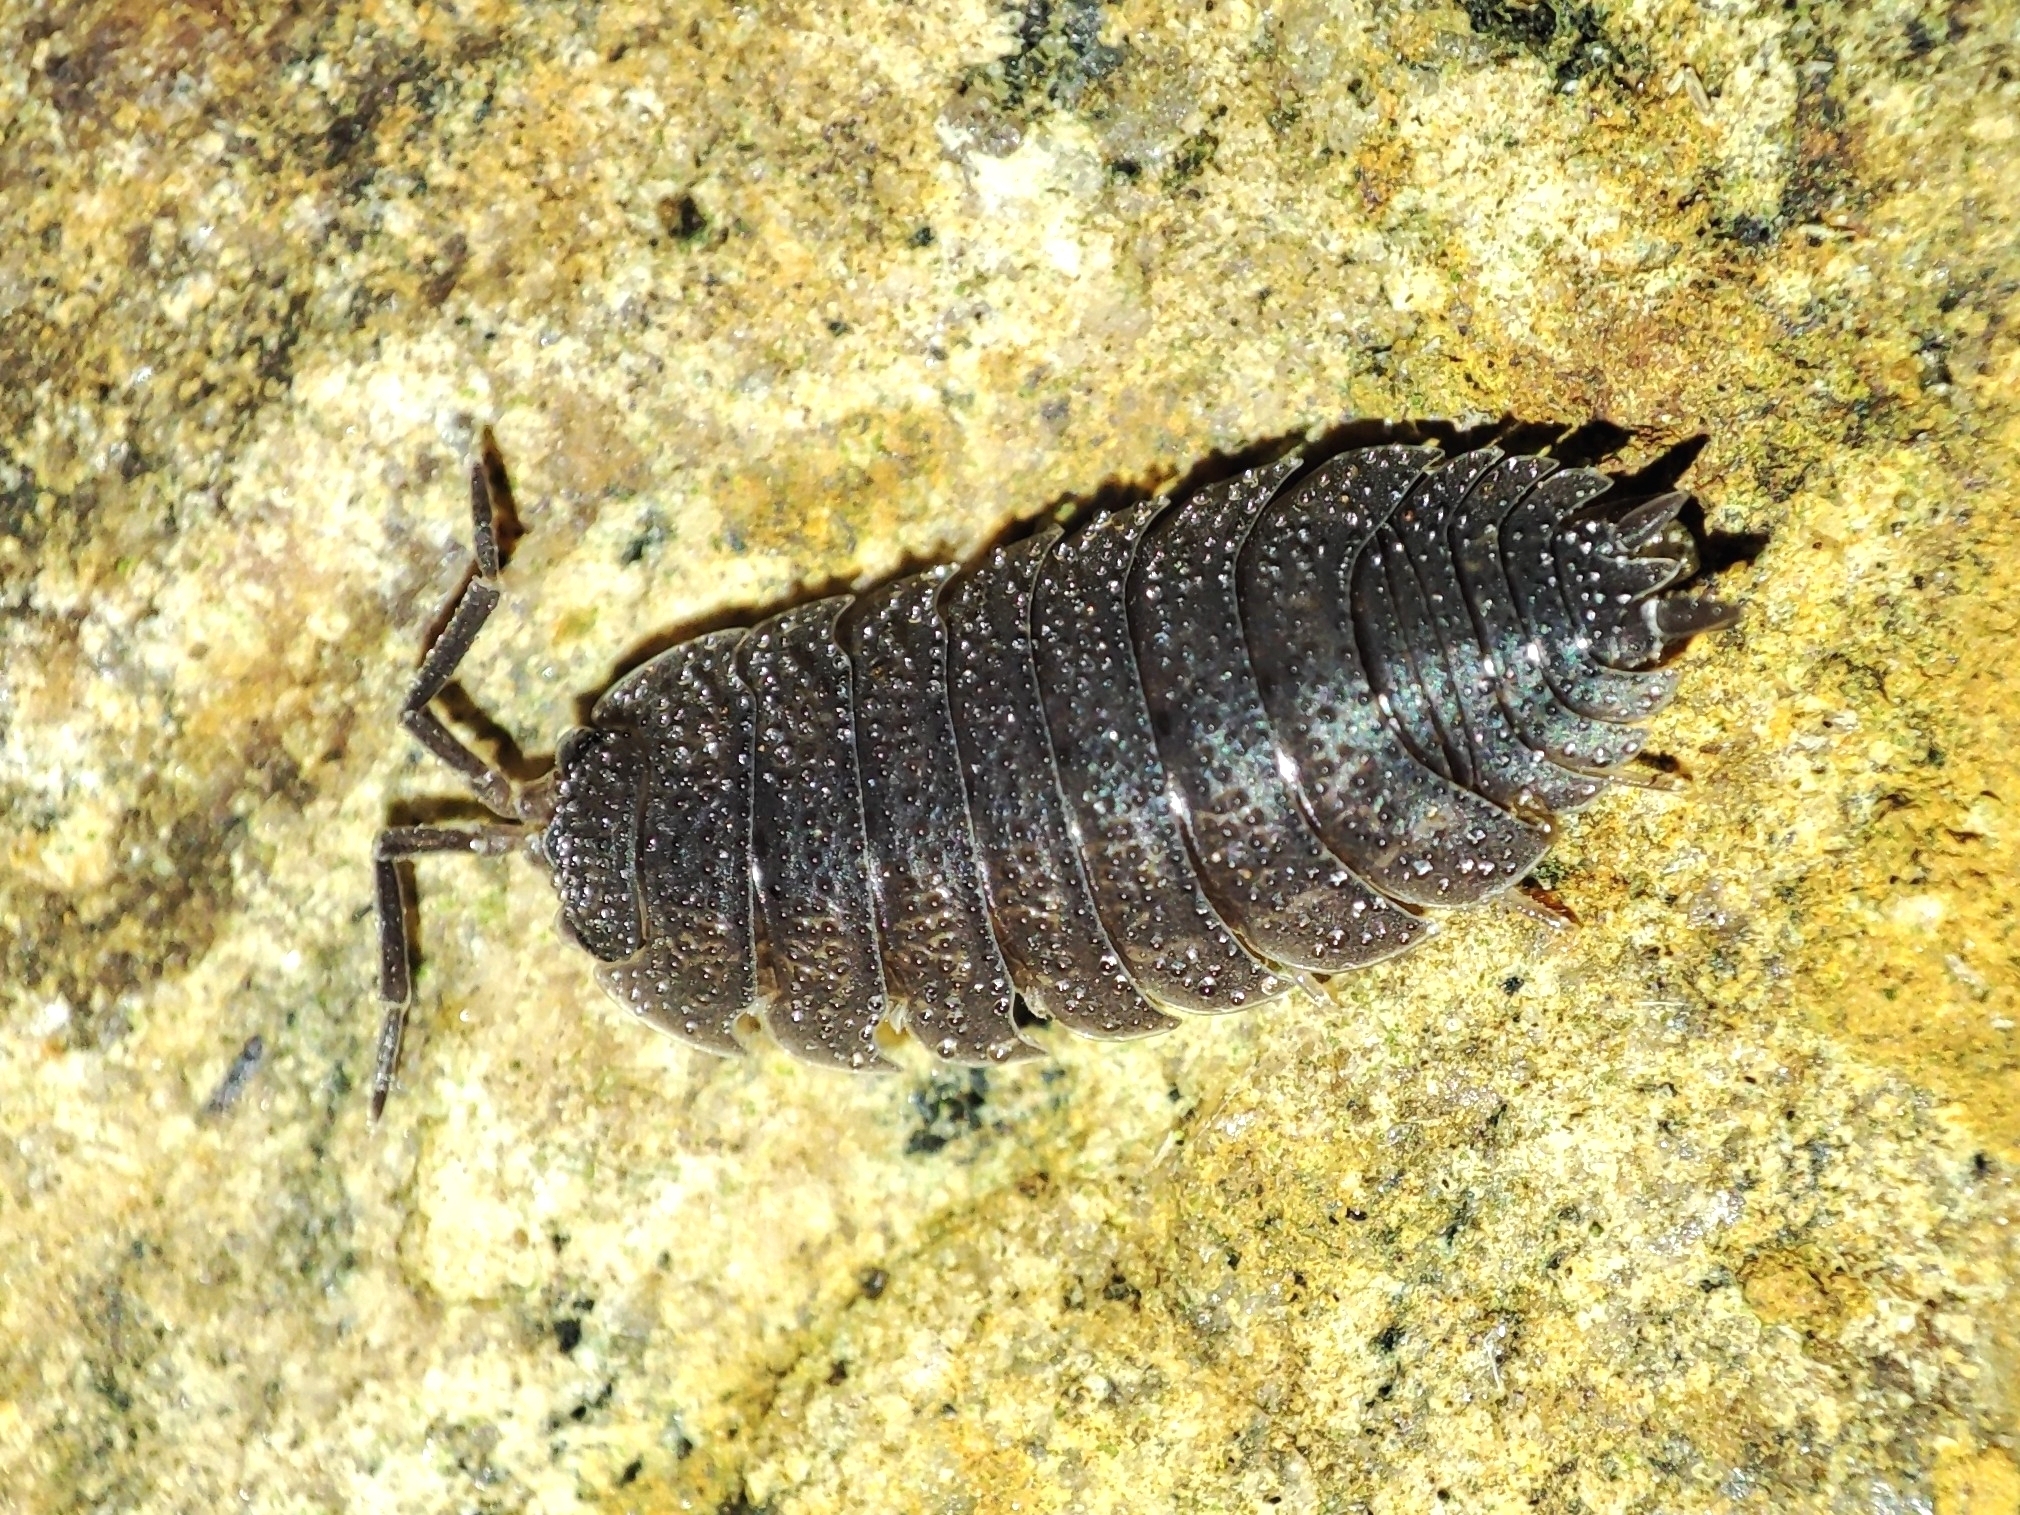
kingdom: Animalia
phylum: Arthropoda
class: Malacostraca
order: Isopoda
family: Porcellionidae
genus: Porcellio
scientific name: Porcellio scaber
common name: Common rough woodlouse
